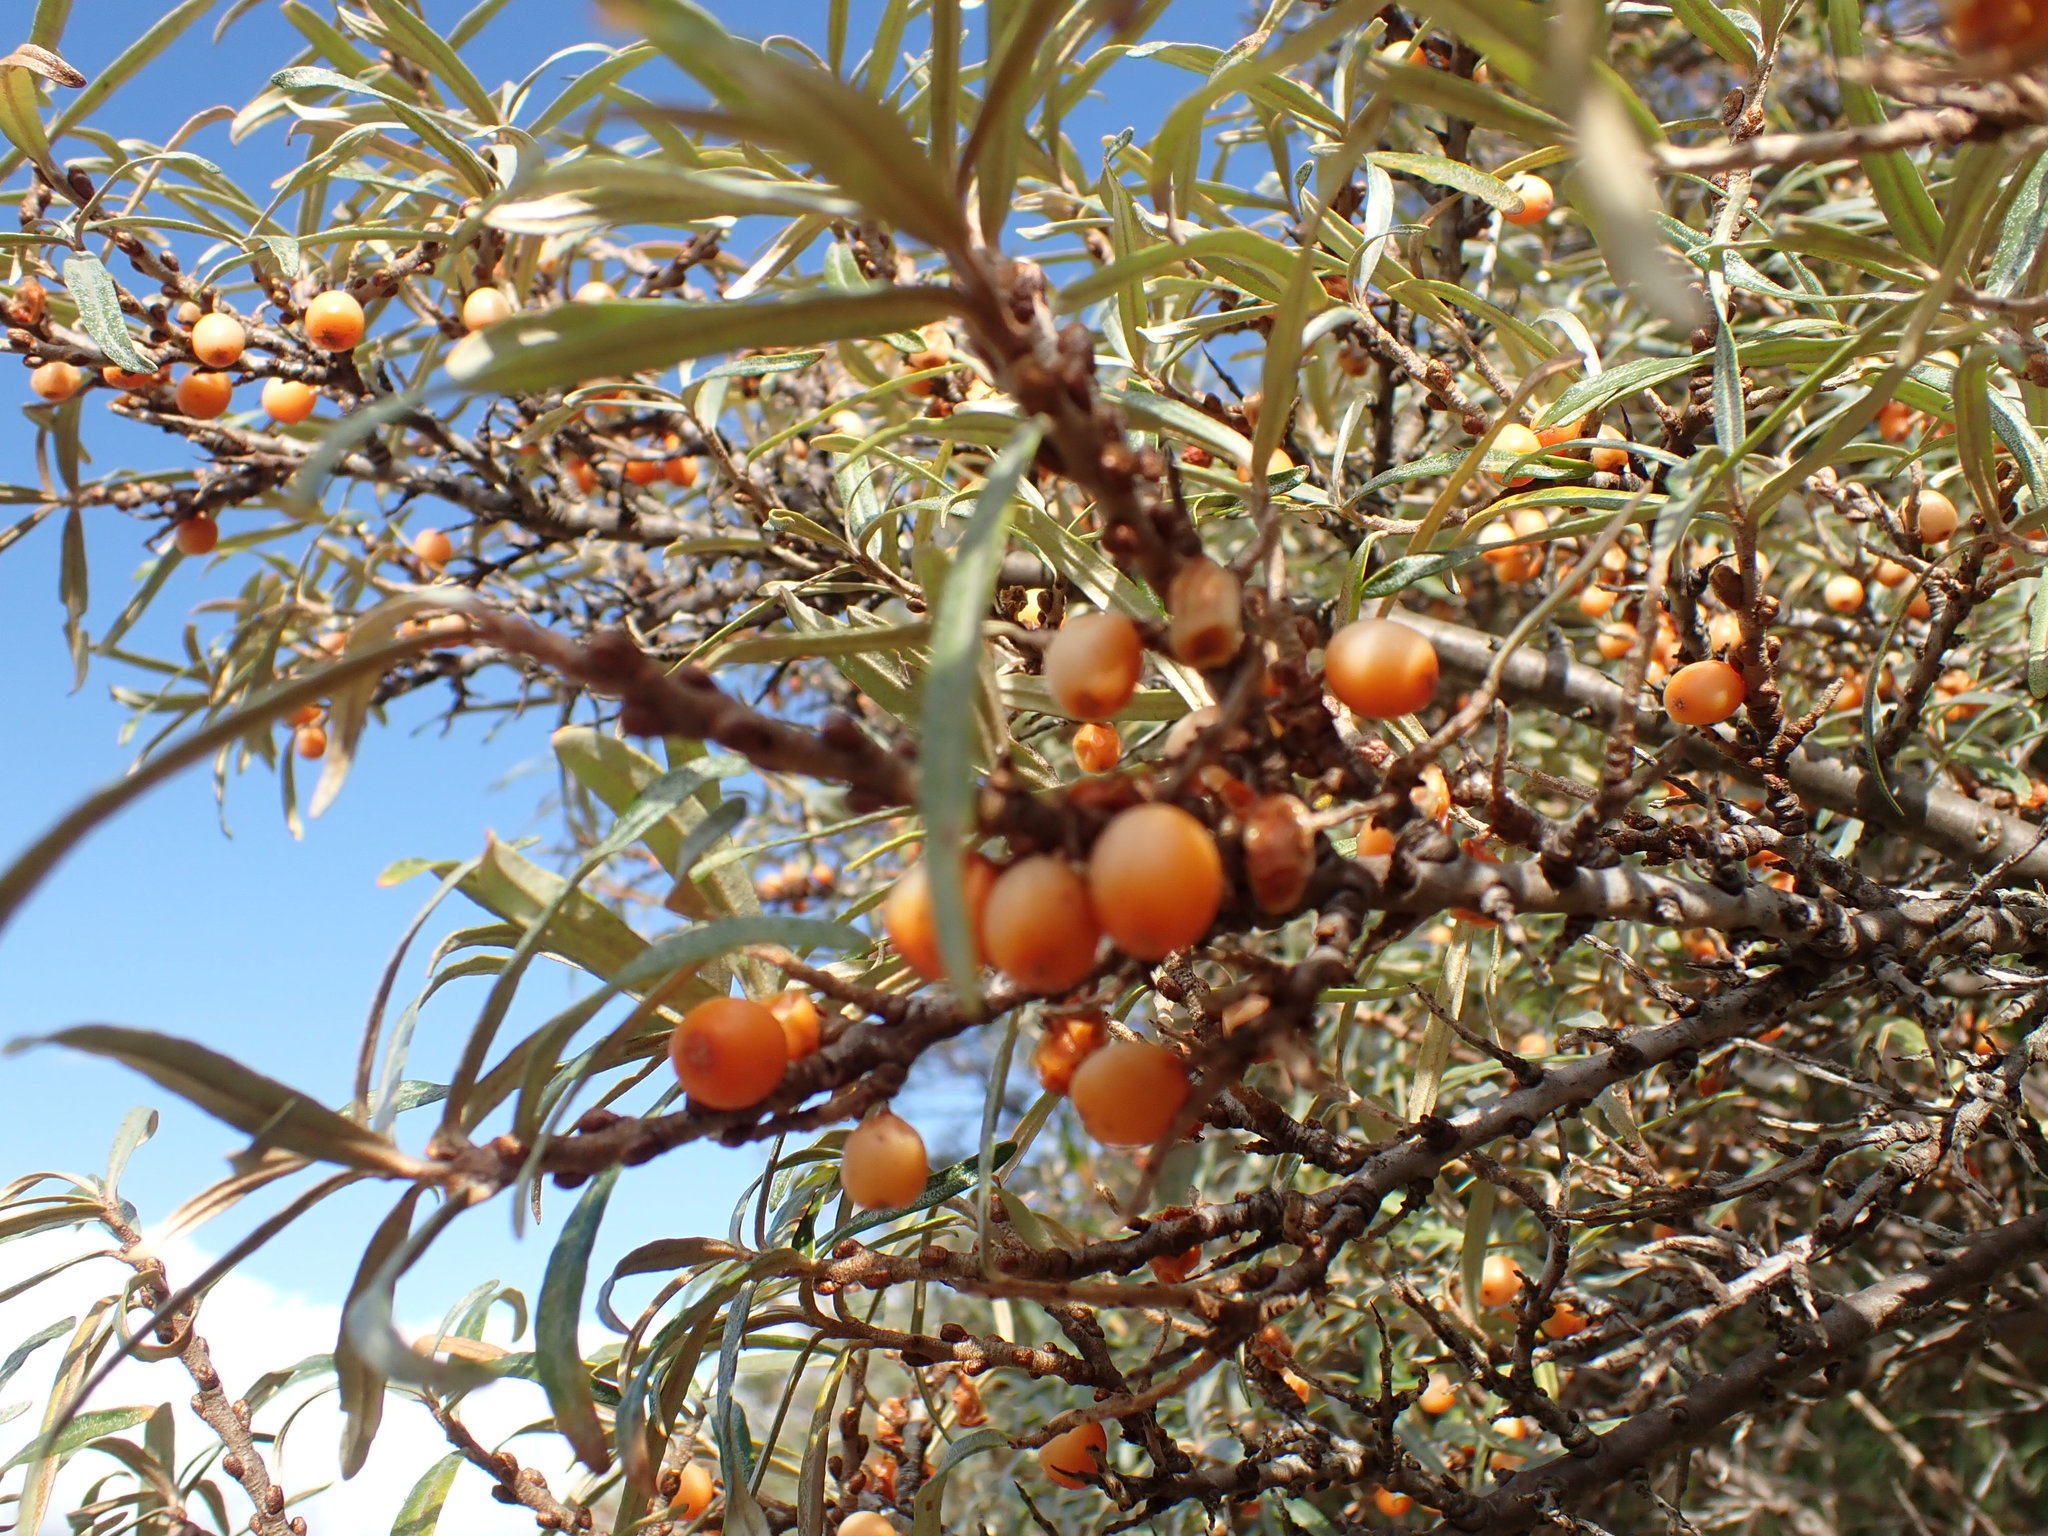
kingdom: Plantae
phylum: Tracheophyta
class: Magnoliopsida
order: Rosales
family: Elaeagnaceae
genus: Hippophae
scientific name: Hippophae rhamnoides
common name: Sea-buckthorn
